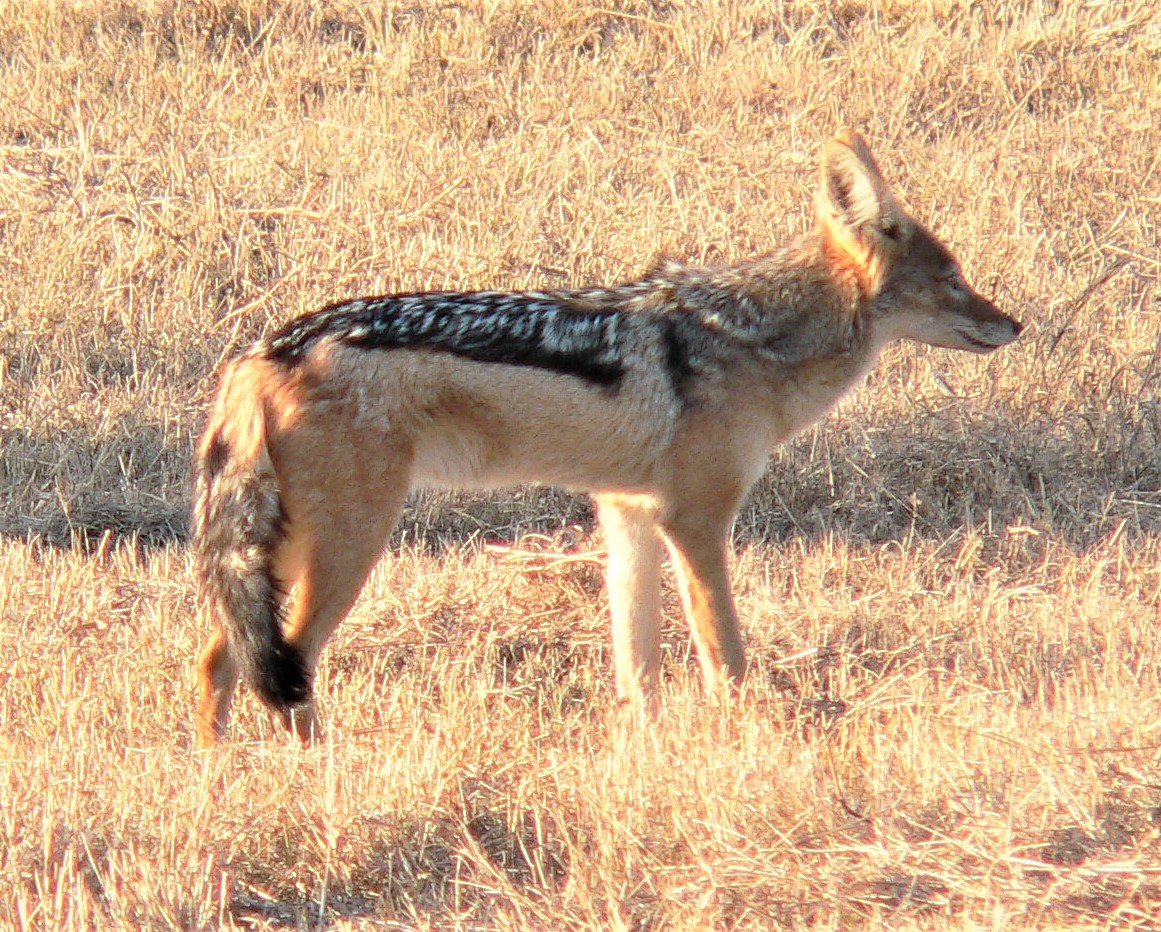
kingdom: Animalia
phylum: Chordata
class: Mammalia
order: Carnivora
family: Canidae
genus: Lupulella
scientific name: Lupulella
